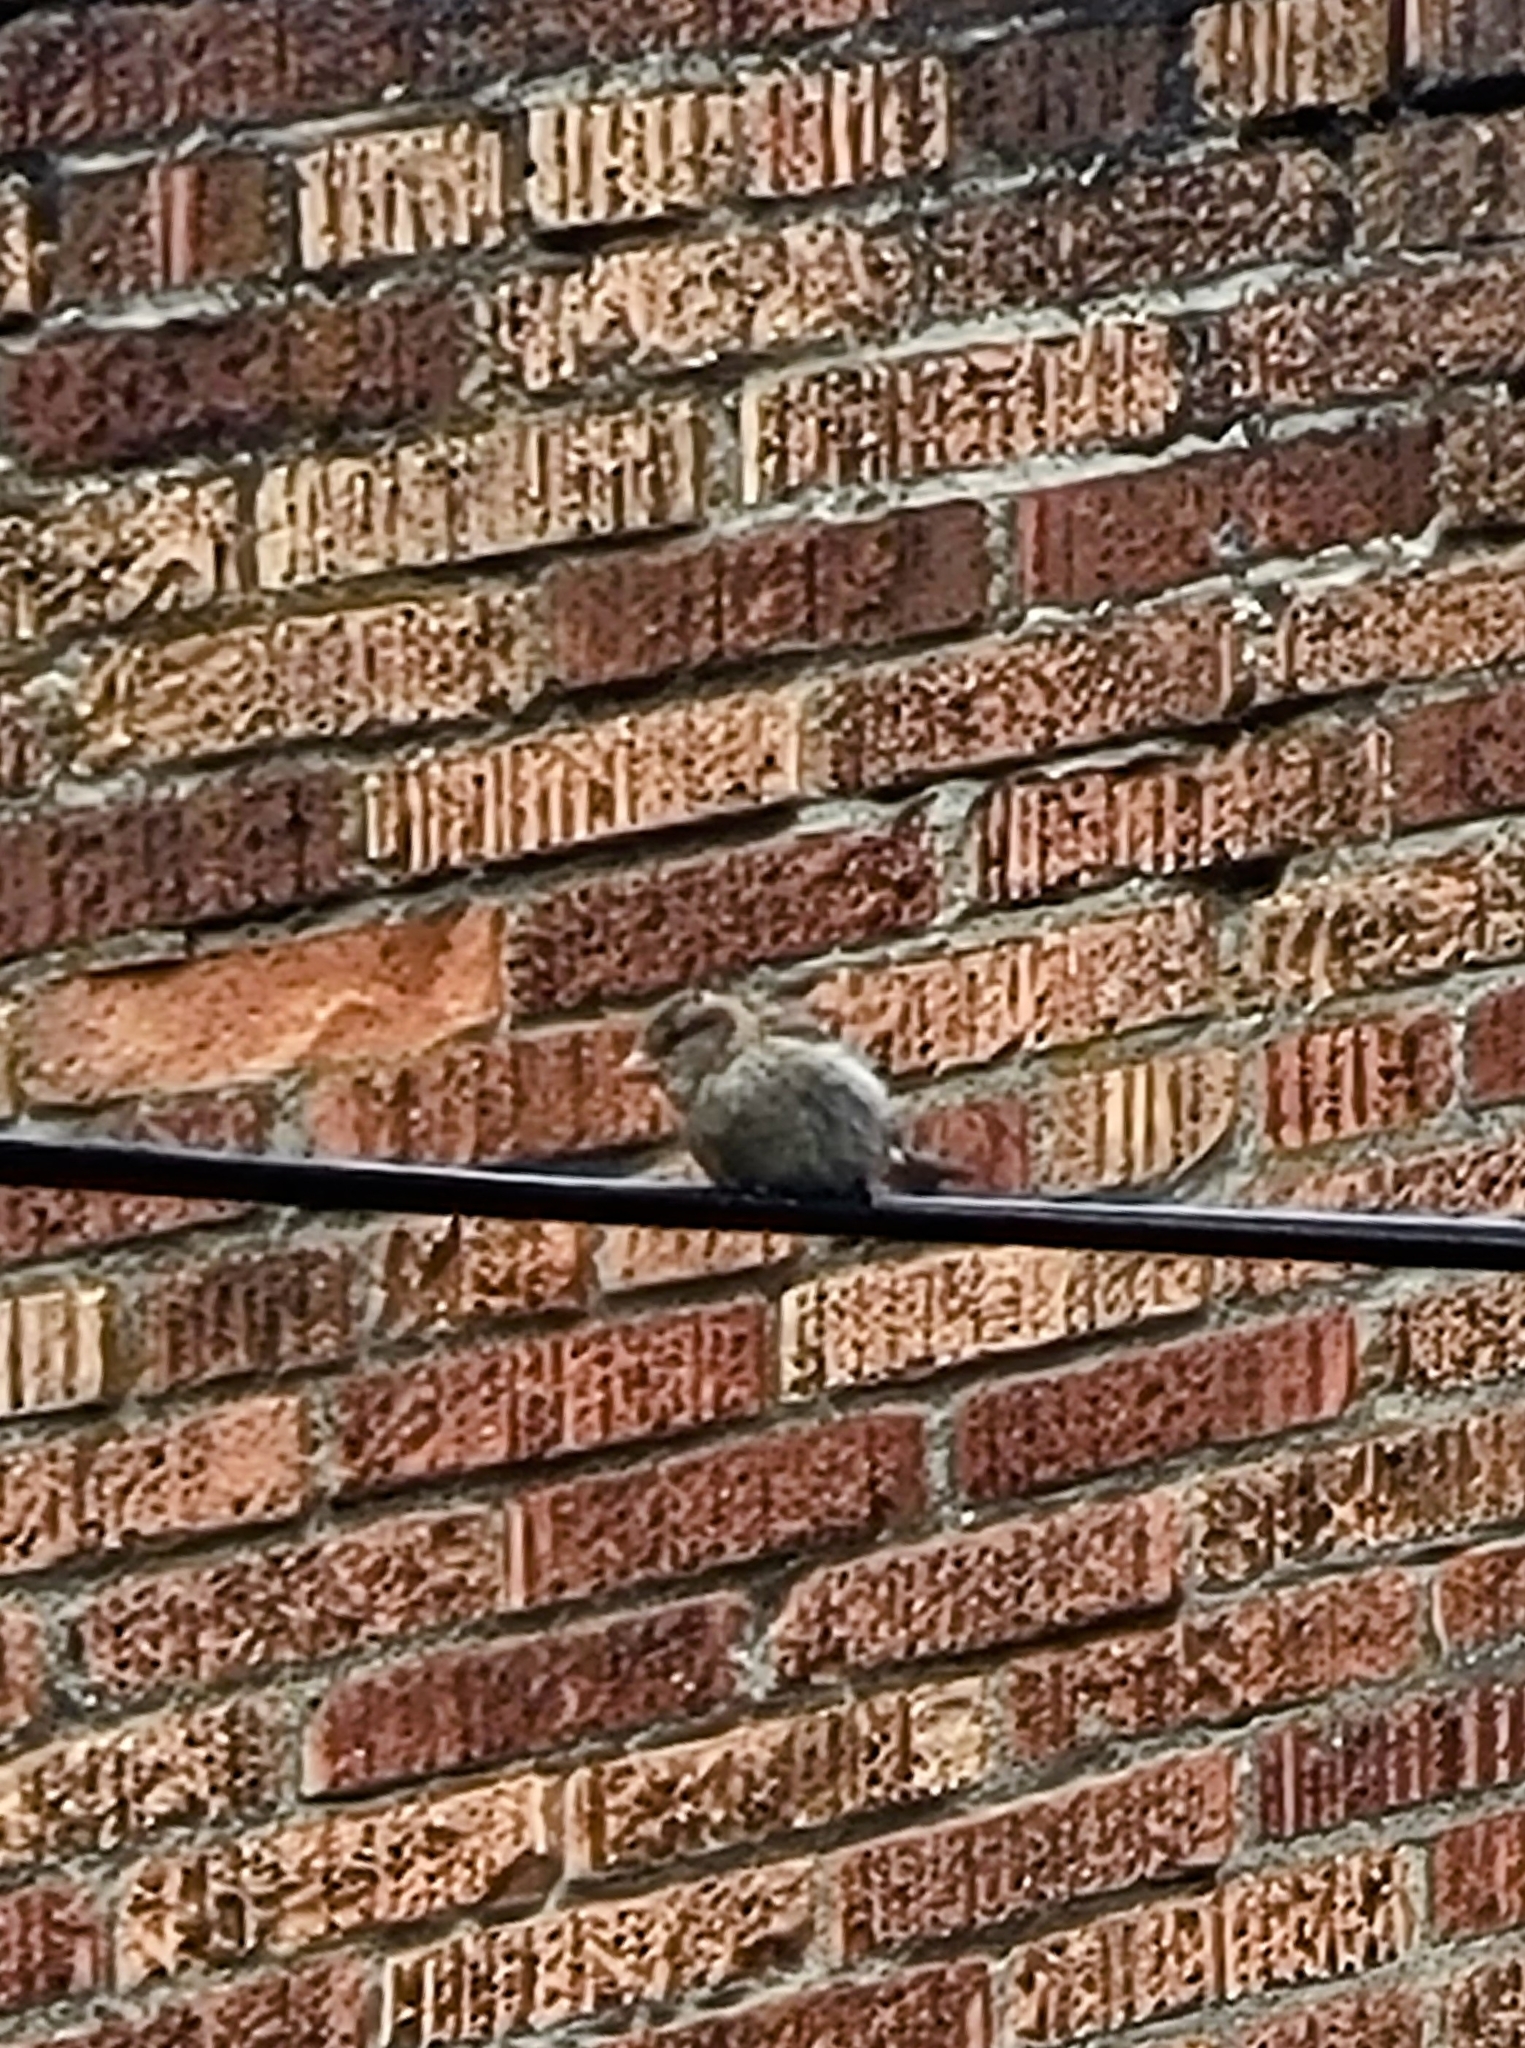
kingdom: Animalia
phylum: Chordata
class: Aves
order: Passeriformes
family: Passeridae
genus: Passer
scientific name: Passer domesticus
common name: House sparrow
